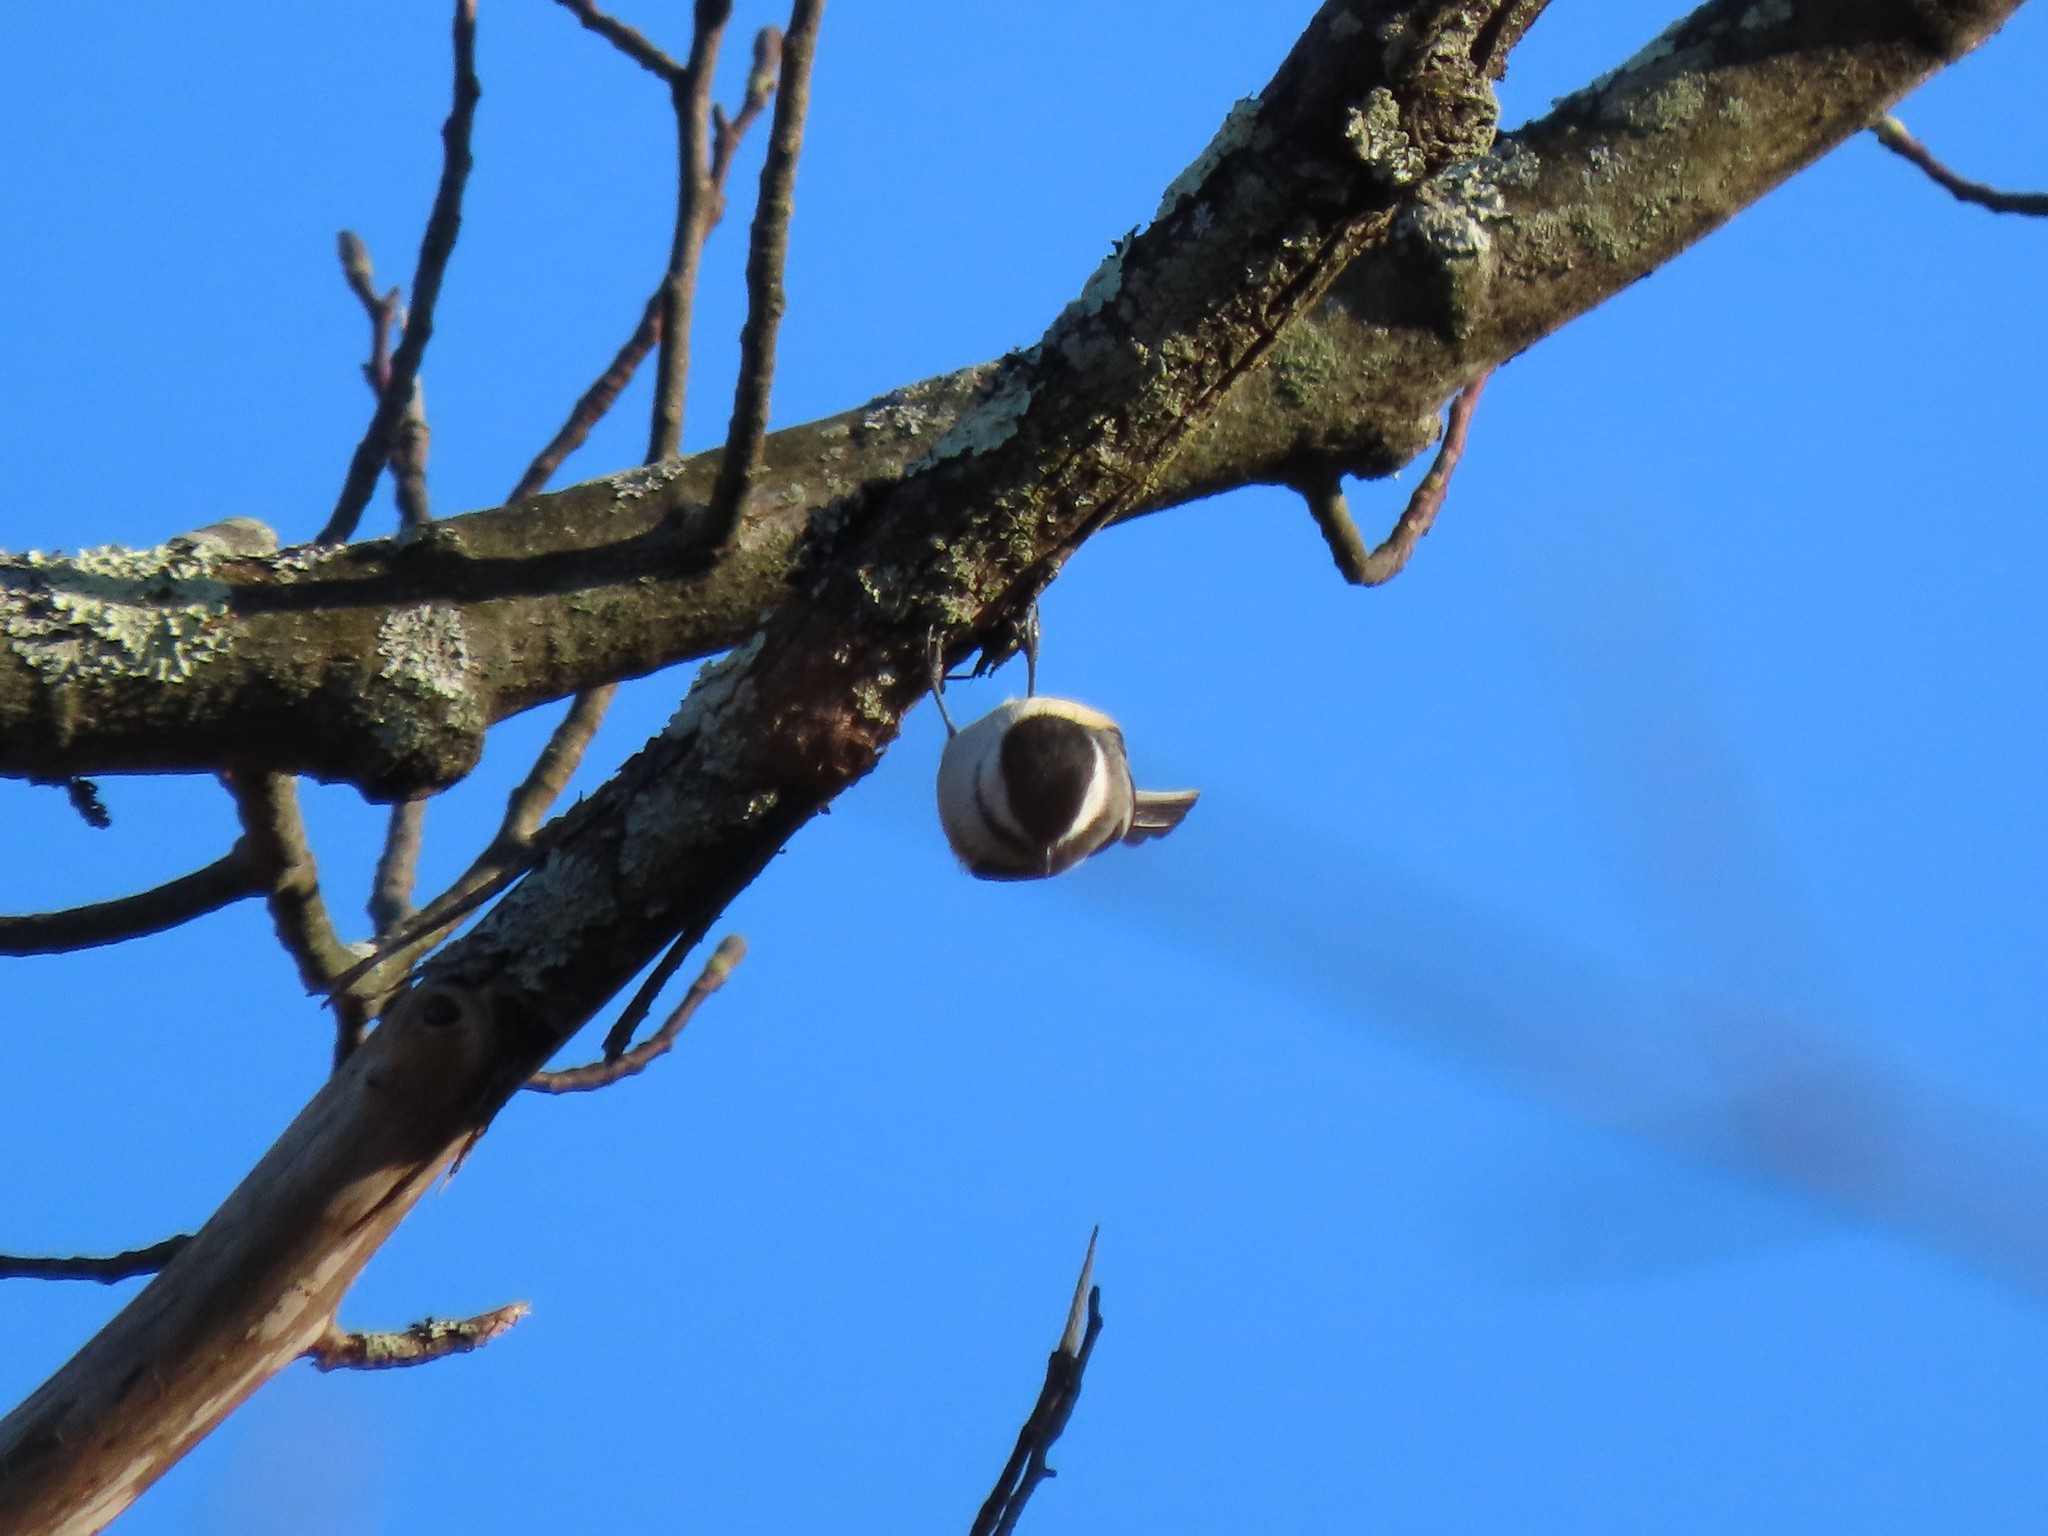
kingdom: Animalia
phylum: Chordata
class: Aves
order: Passeriformes
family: Paridae
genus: Poecile
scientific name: Poecile atricapillus
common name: Black-capped chickadee
